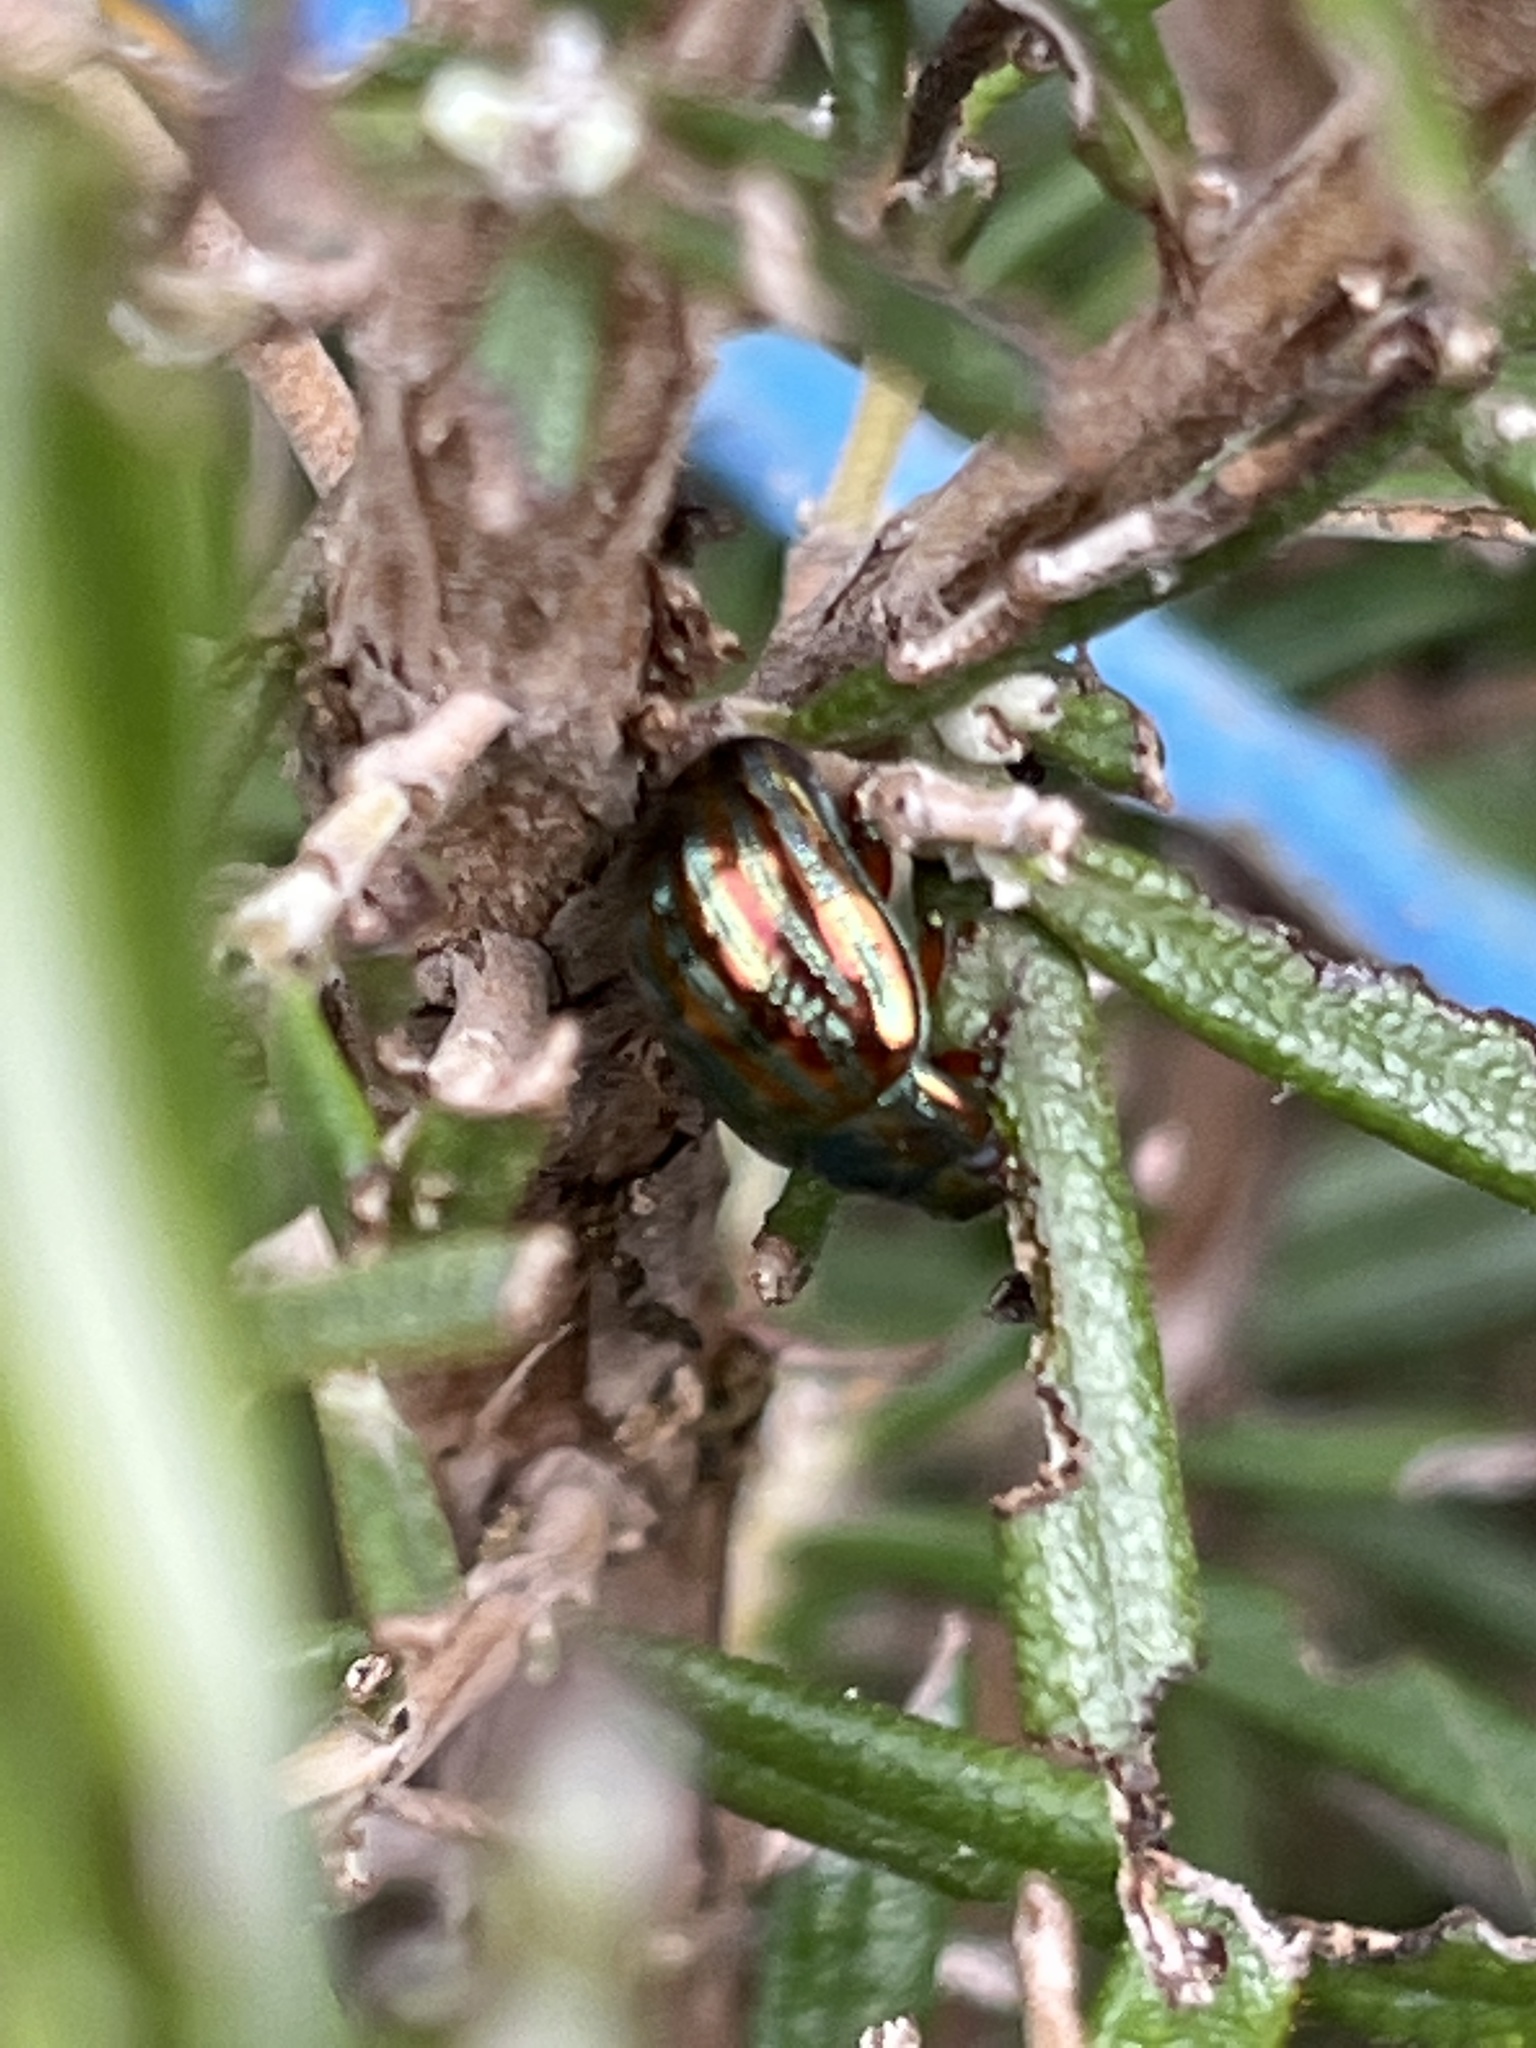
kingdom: Animalia
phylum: Arthropoda
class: Insecta
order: Coleoptera
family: Chrysomelidae
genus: Chrysolina
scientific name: Chrysolina americana
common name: Rosemary beetle
